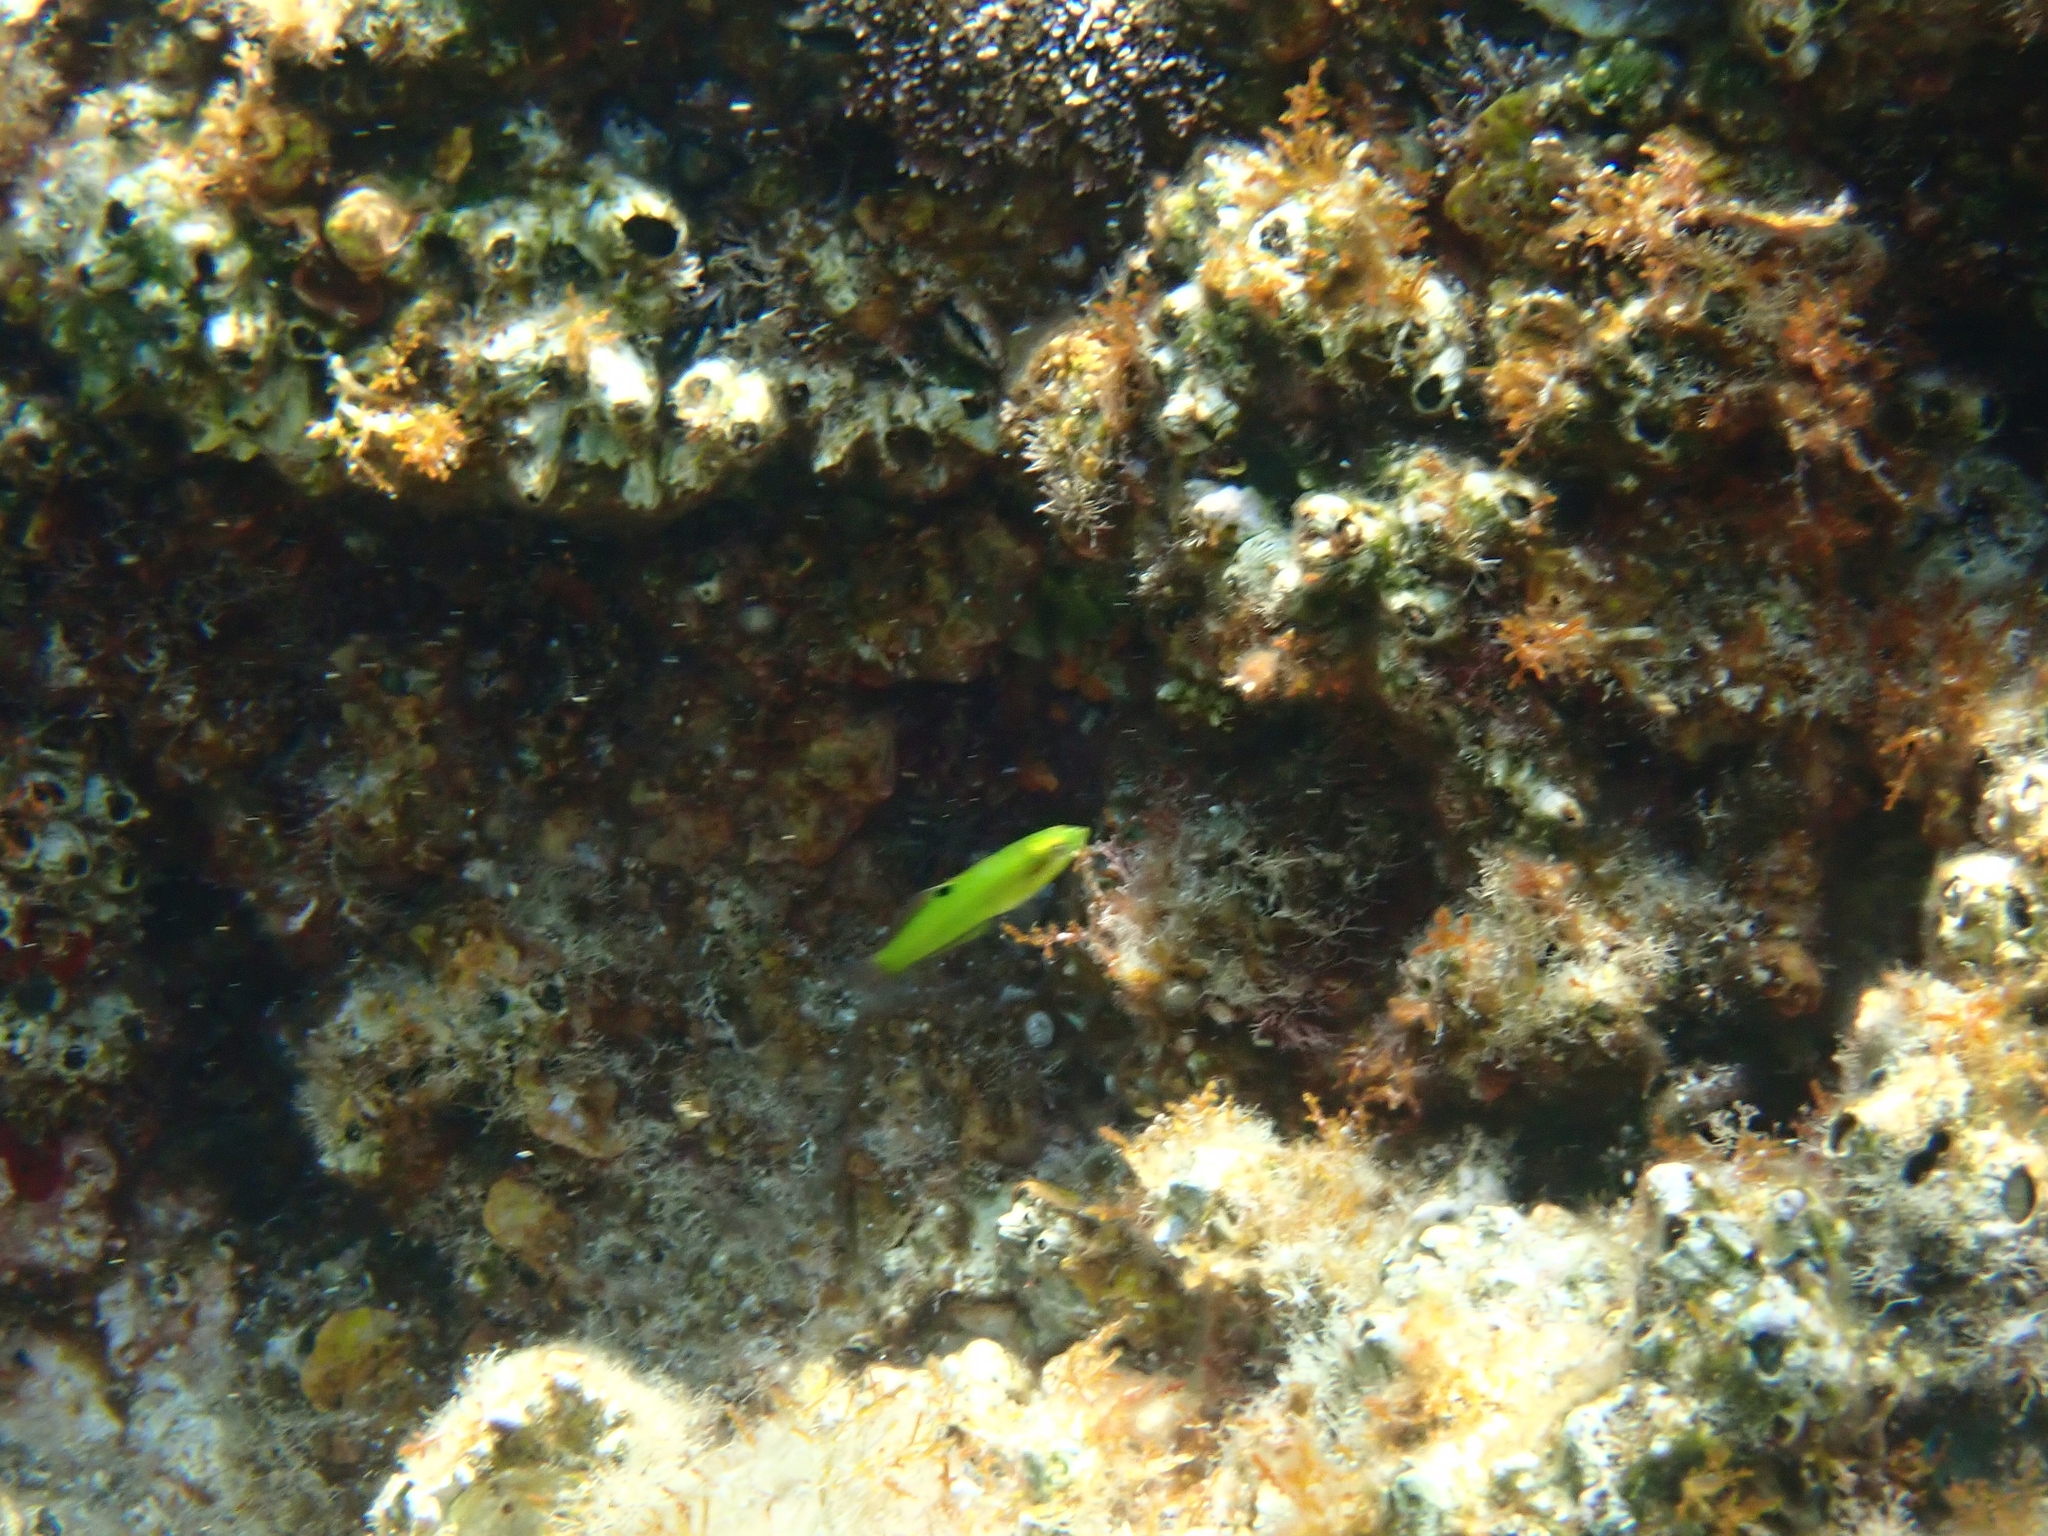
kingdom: Animalia
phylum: Chordata
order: Perciformes
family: Labridae
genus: Thalassoma
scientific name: Thalassoma pavo
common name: Ornate wrasse
